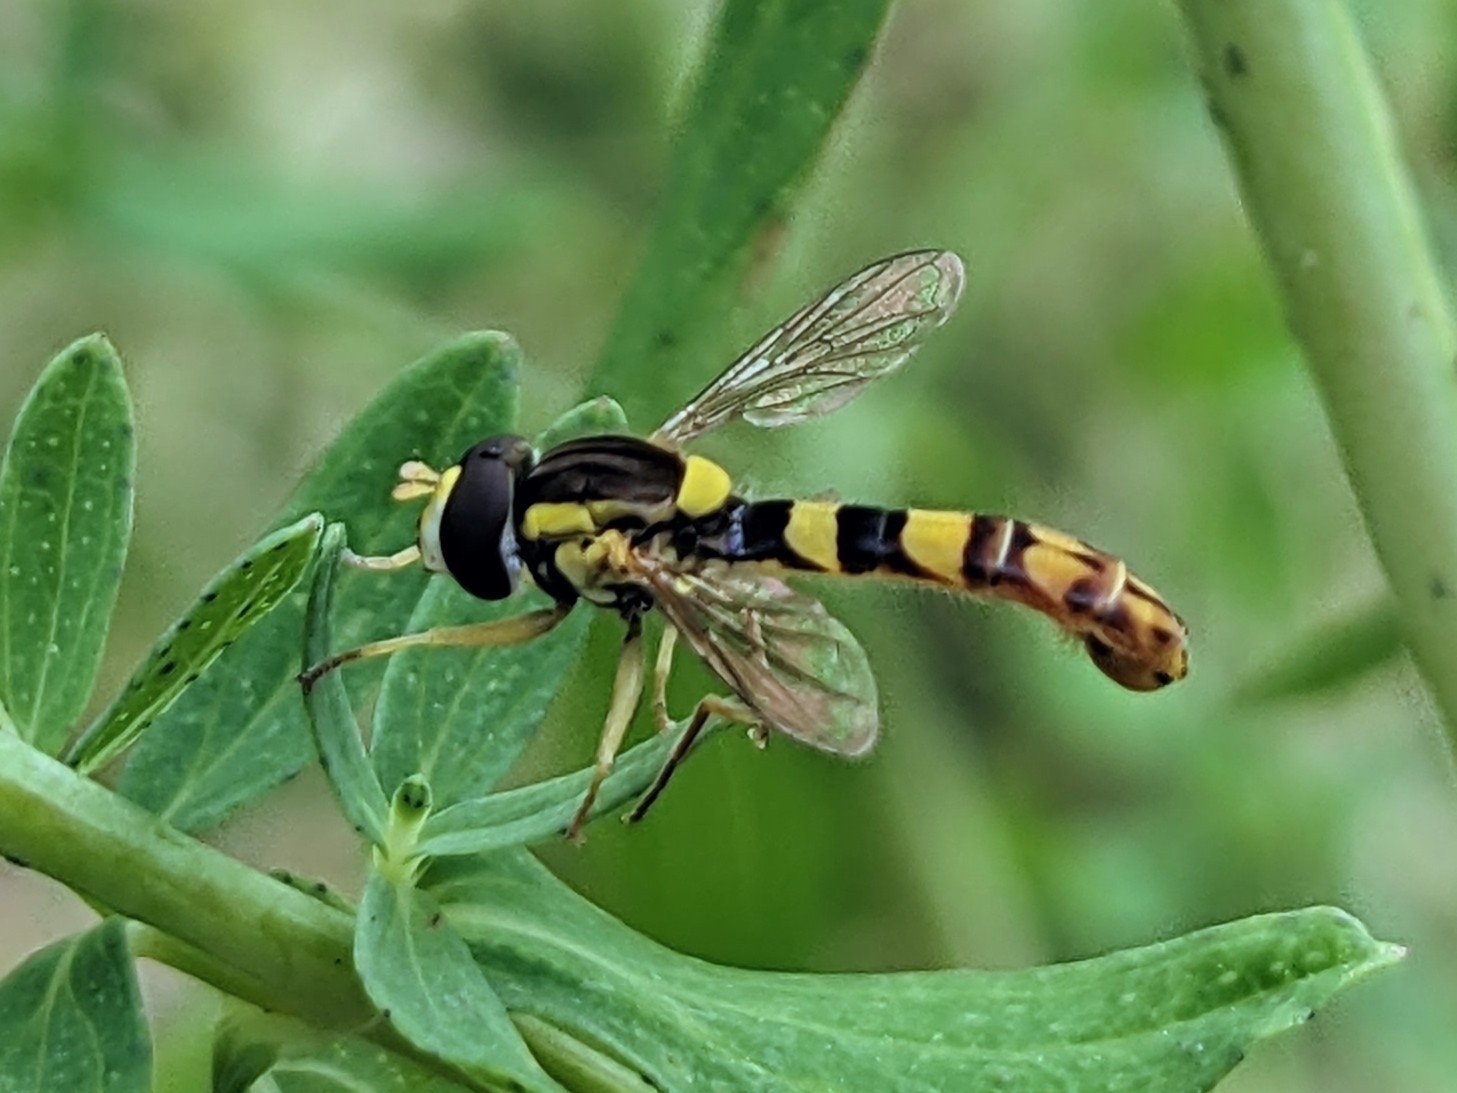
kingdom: Animalia
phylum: Arthropoda
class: Insecta
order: Diptera
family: Syrphidae
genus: Sphaerophoria
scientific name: Sphaerophoria scripta
